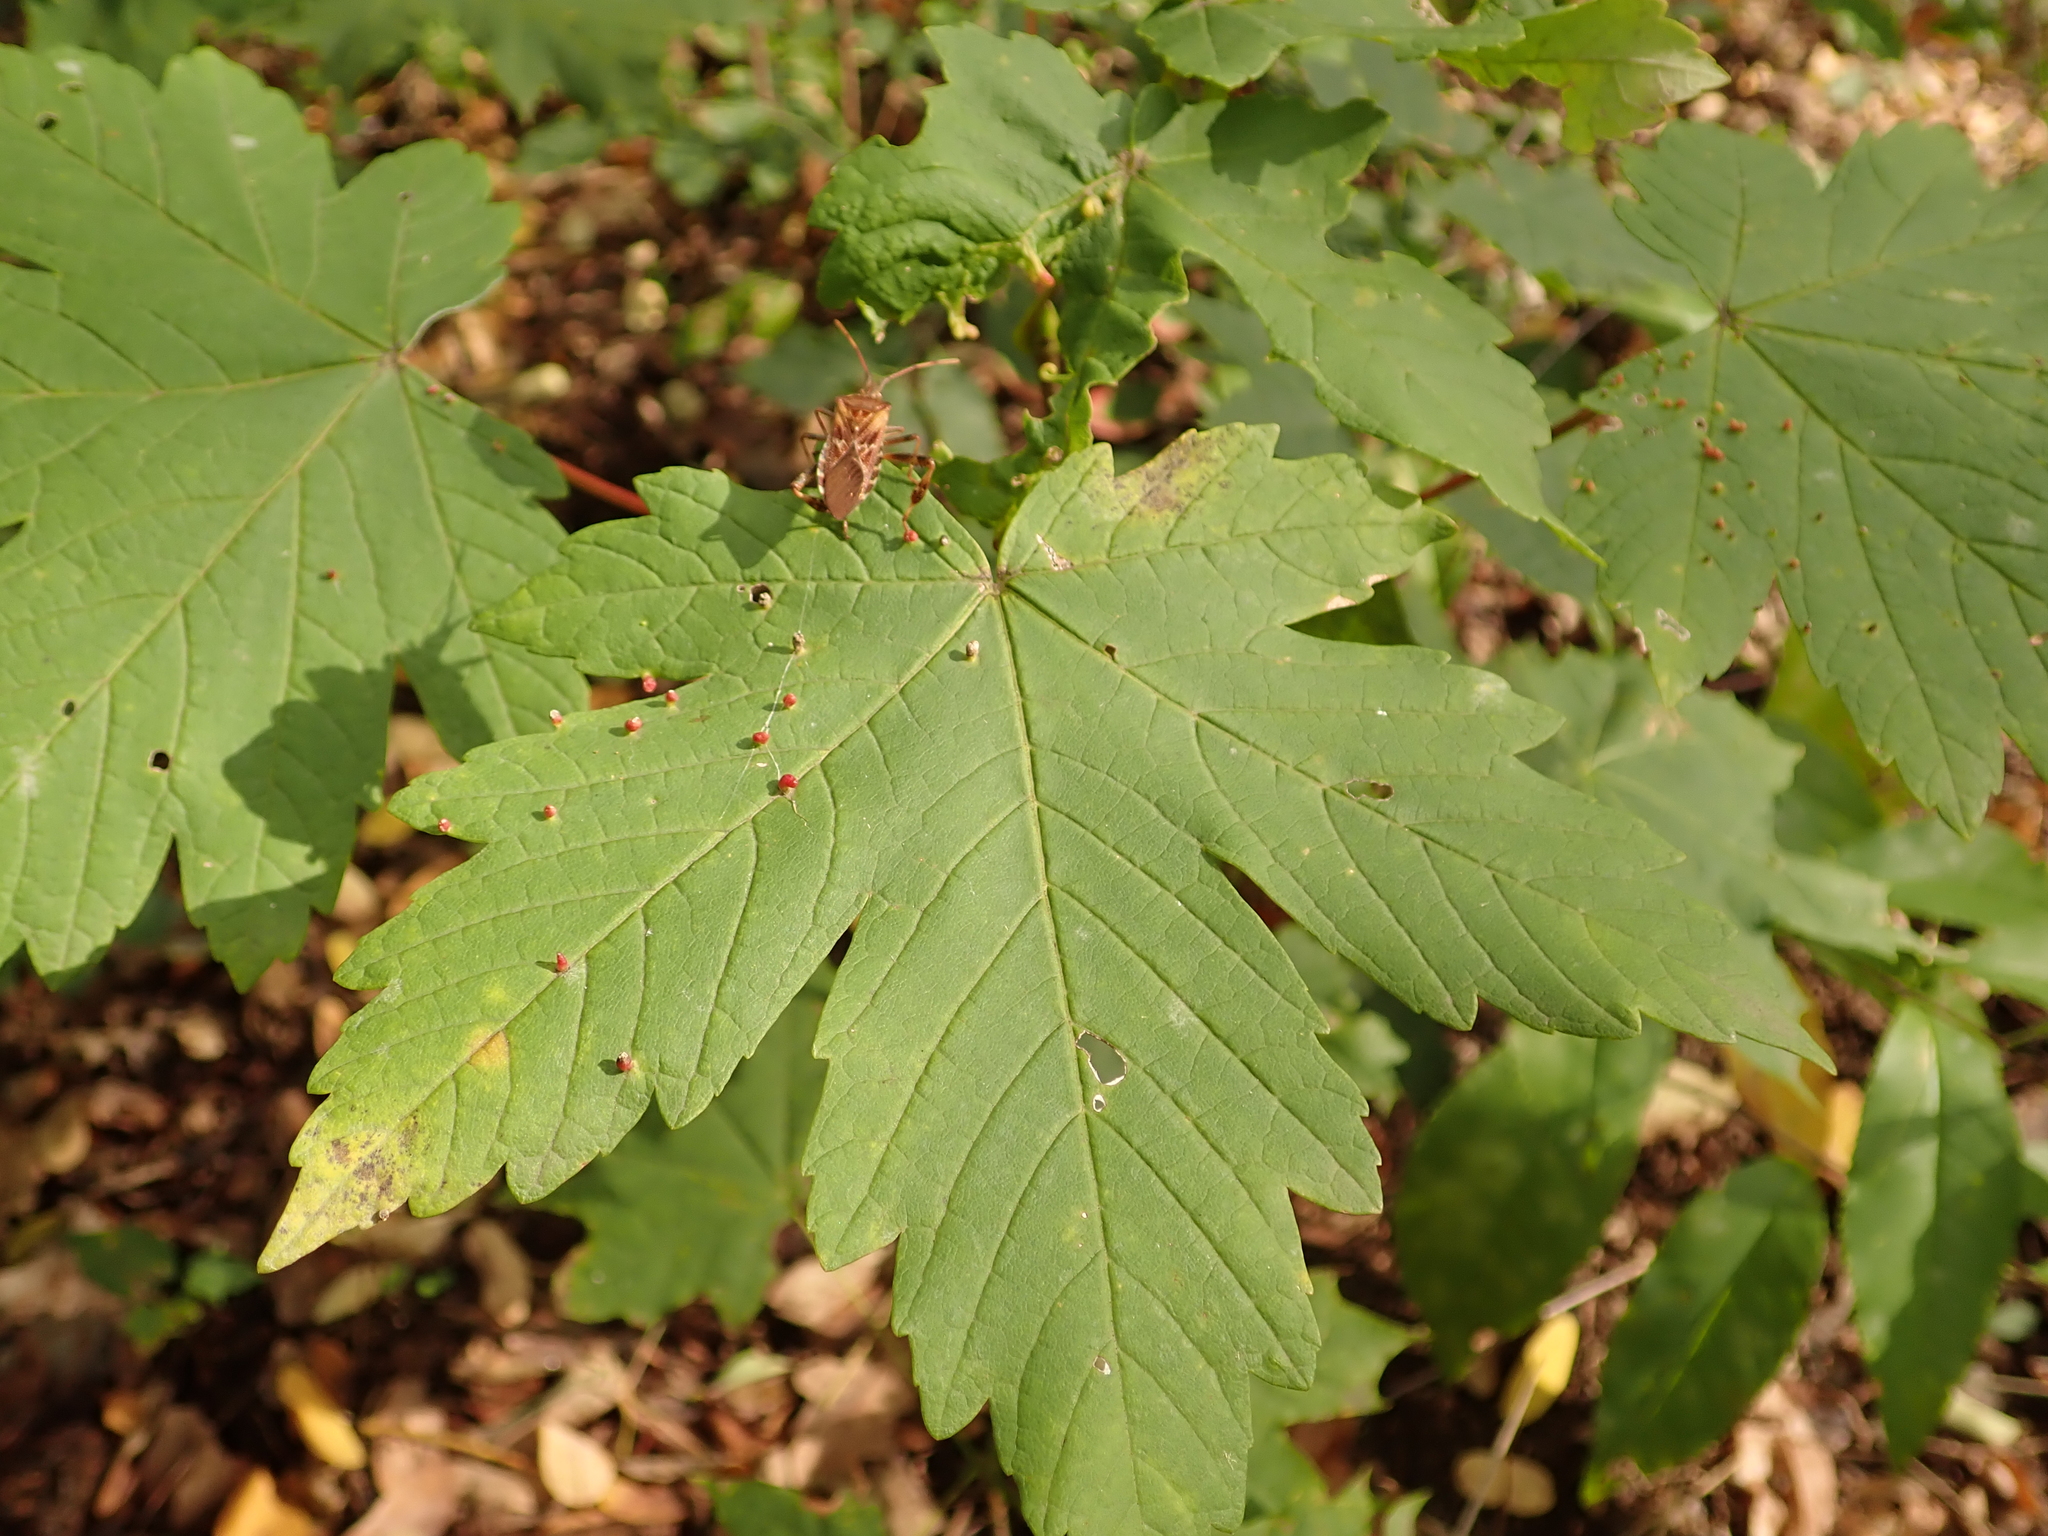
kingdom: Plantae
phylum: Tracheophyta
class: Magnoliopsida
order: Sapindales
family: Sapindaceae
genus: Acer
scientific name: Acer pseudoplatanus
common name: Sycamore
